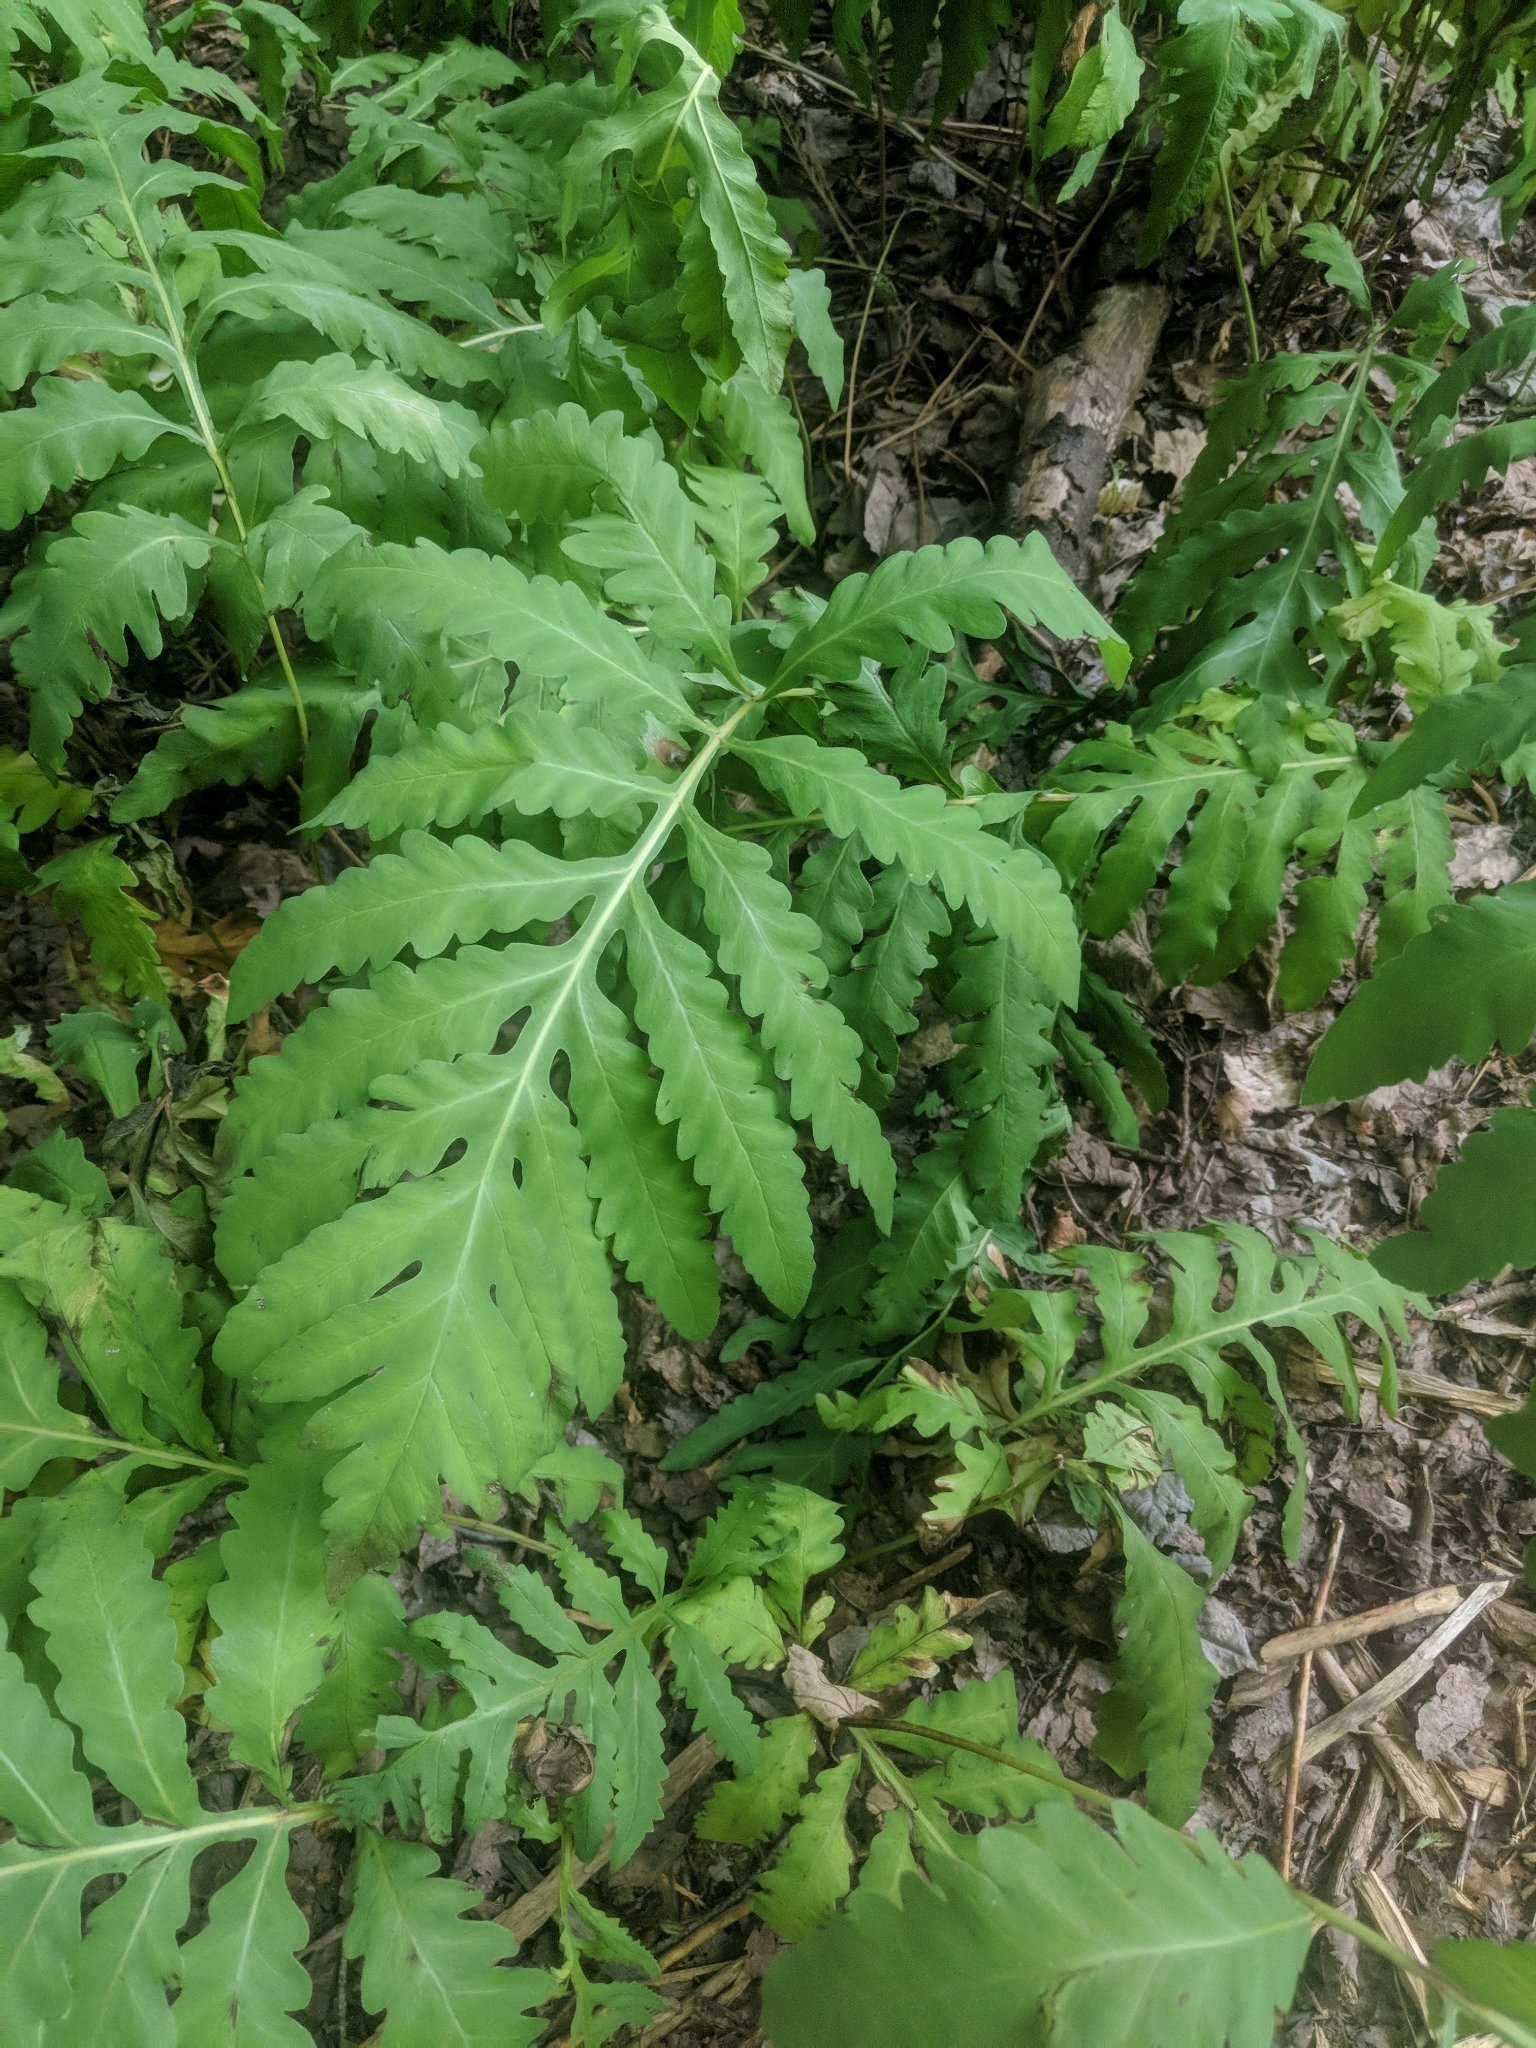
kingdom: Plantae
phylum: Tracheophyta
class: Polypodiopsida
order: Polypodiales
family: Onocleaceae
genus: Onoclea
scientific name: Onoclea sensibilis
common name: Sensitive fern
